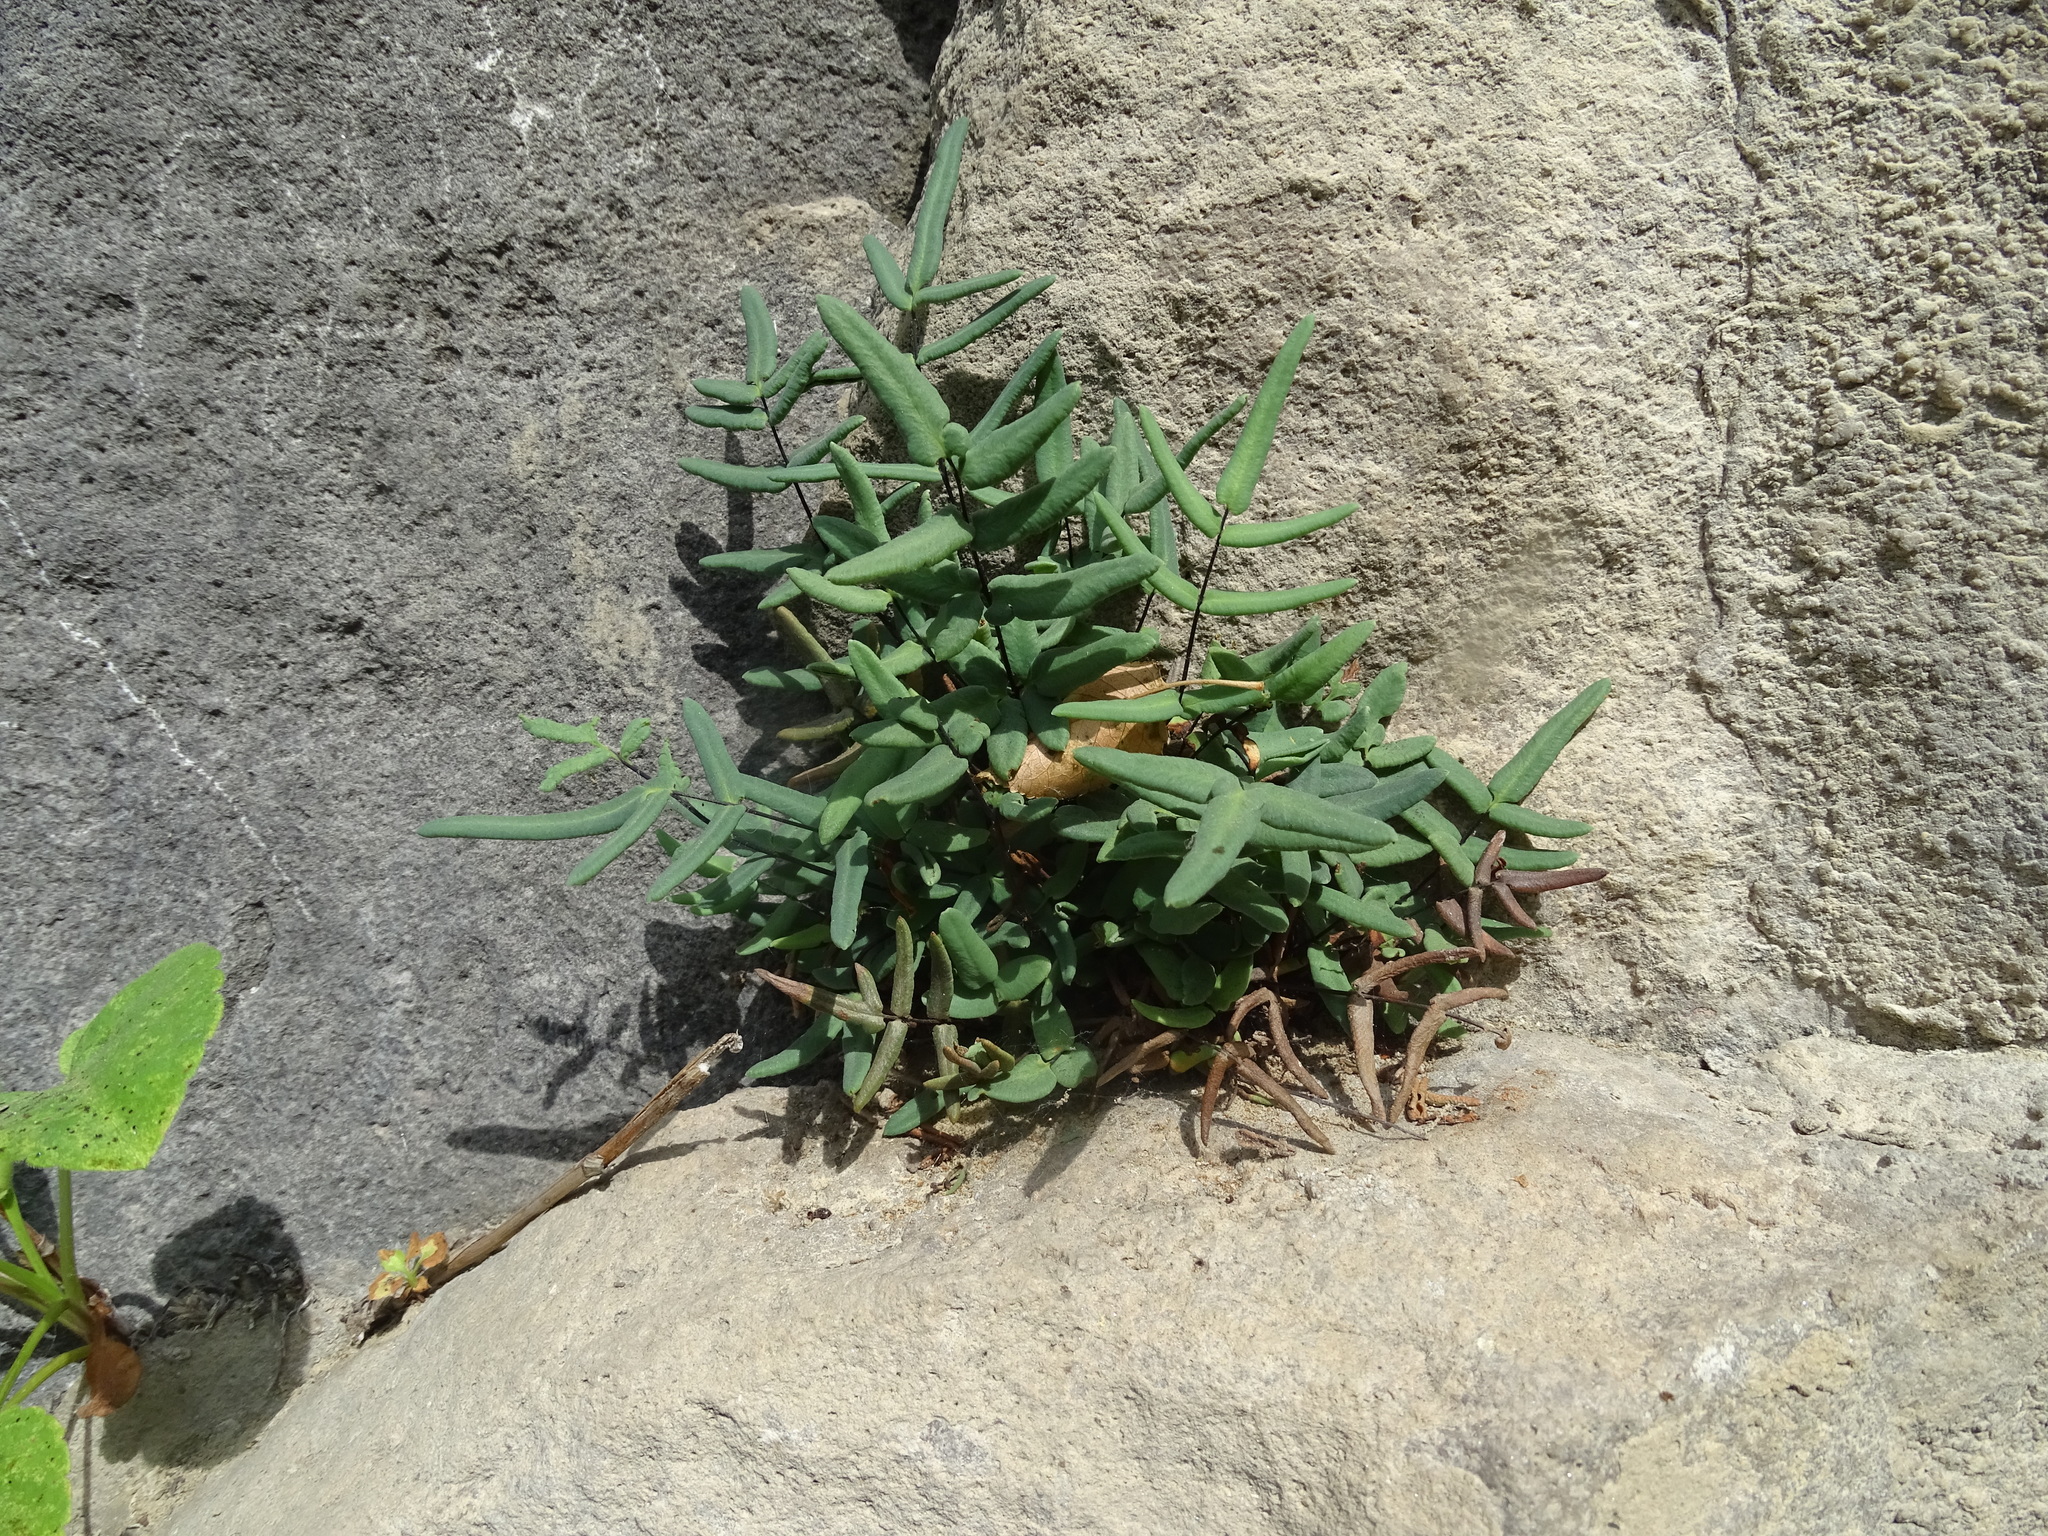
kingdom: Plantae
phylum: Tracheophyta
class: Polypodiopsida
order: Polypodiales
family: Pteridaceae
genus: Pellaea
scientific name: Pellaea glabella
